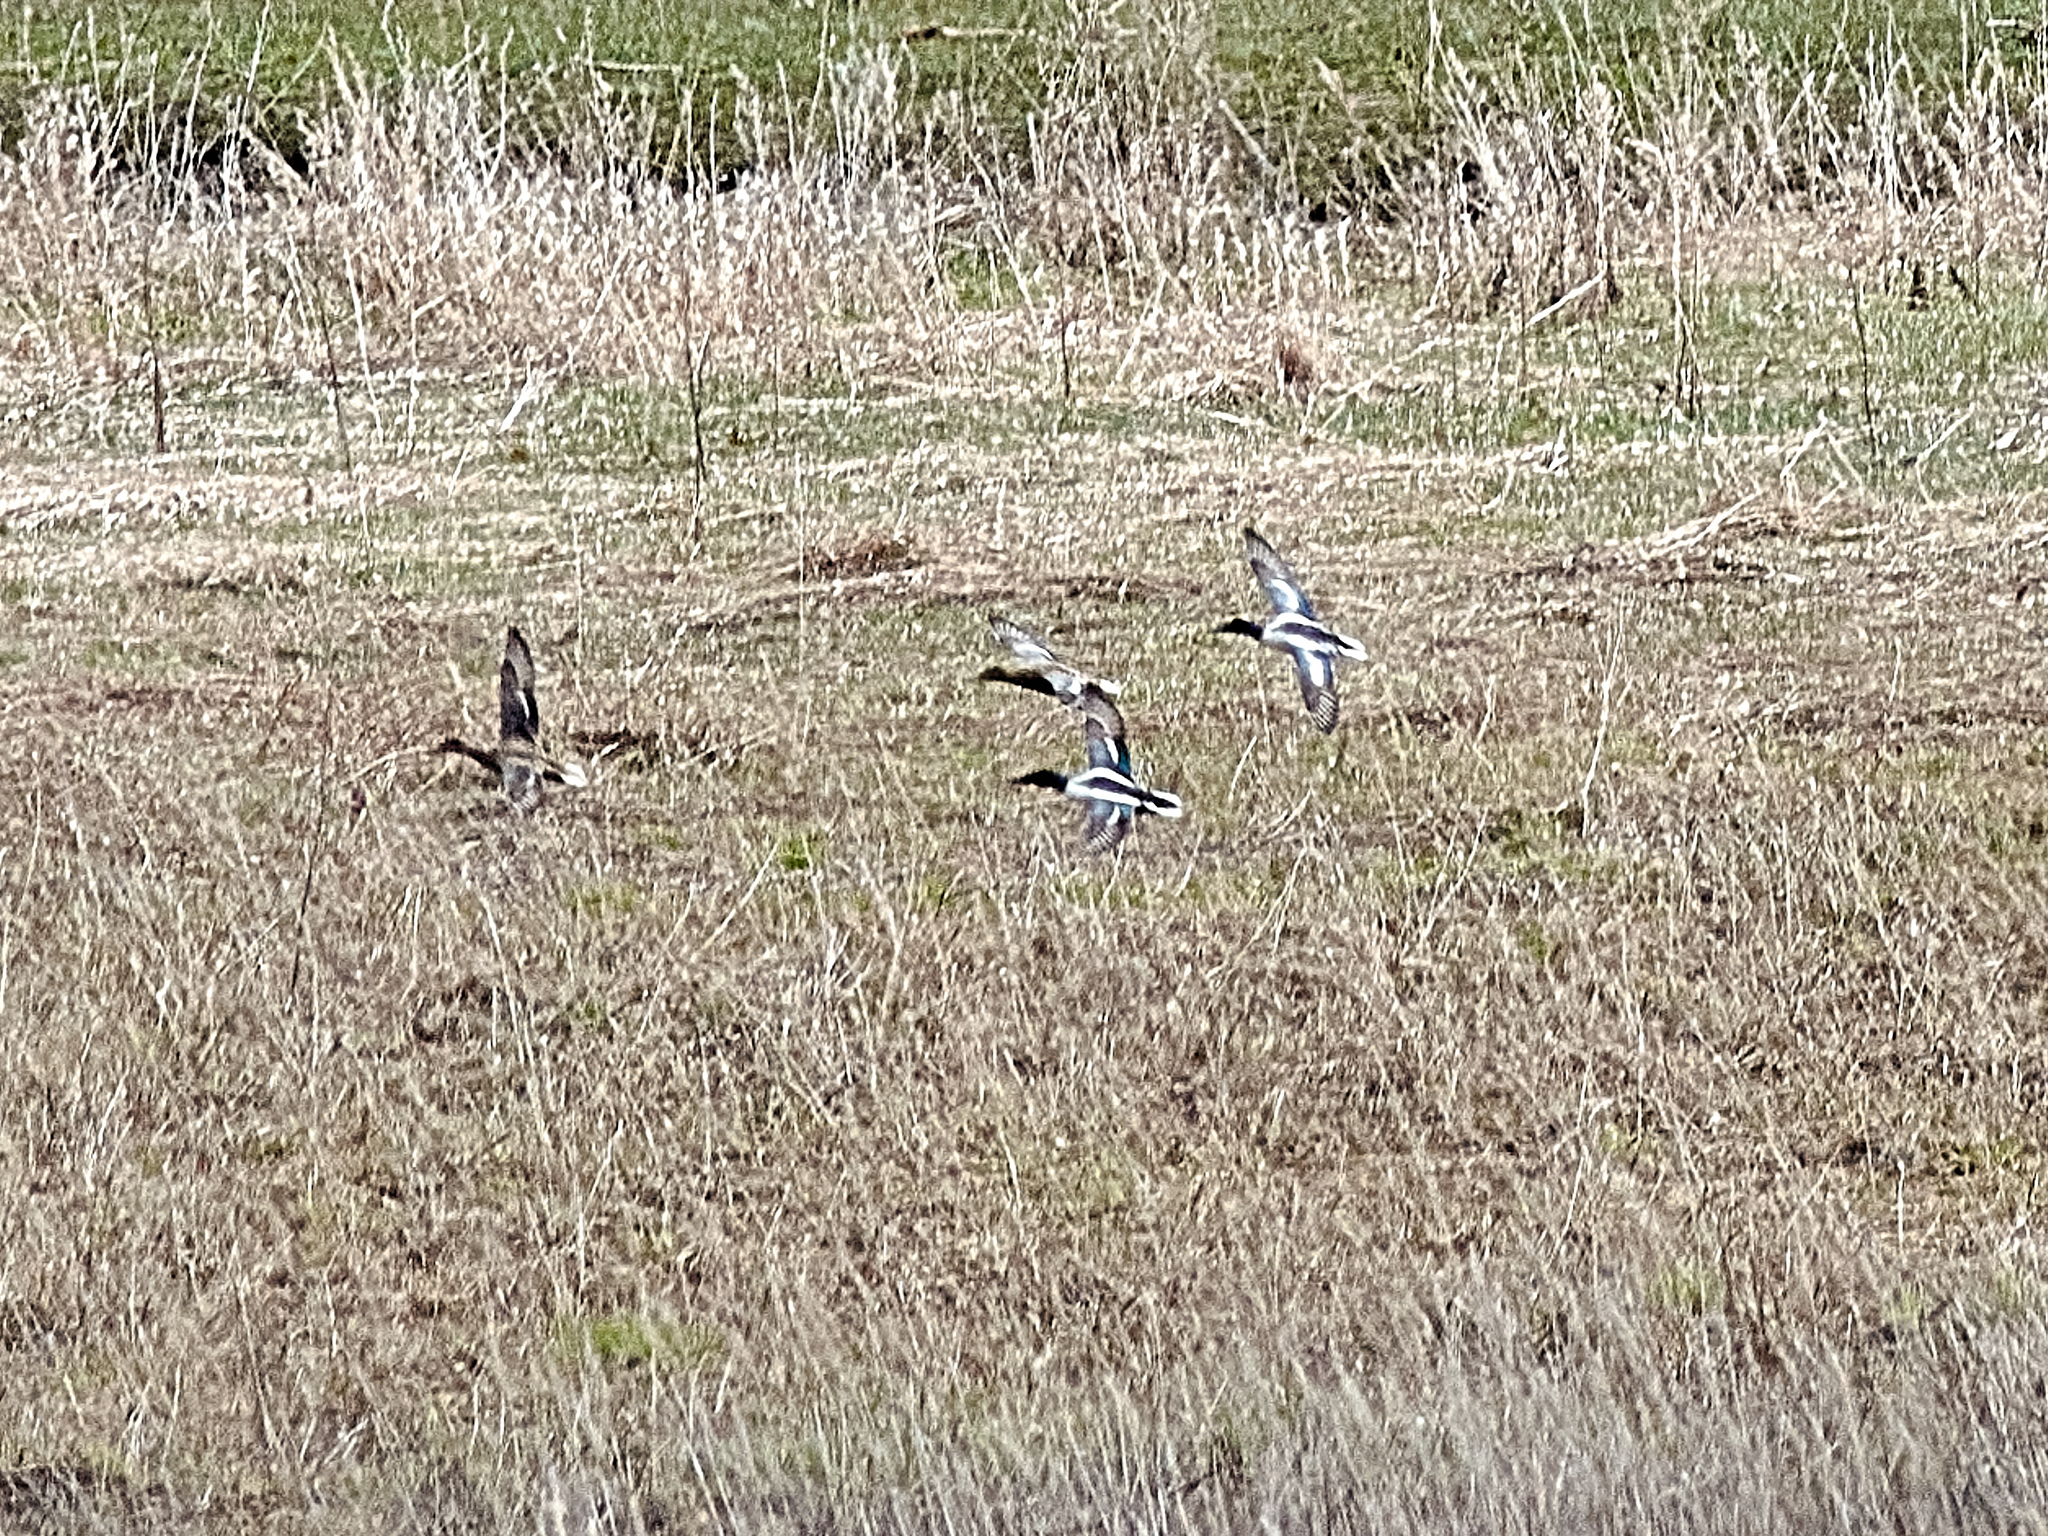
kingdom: Animalia
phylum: Chordata
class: Aves
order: Anseriformes
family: Anatidae
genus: Spatula
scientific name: Spatula clypeata
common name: Northern shoveler
